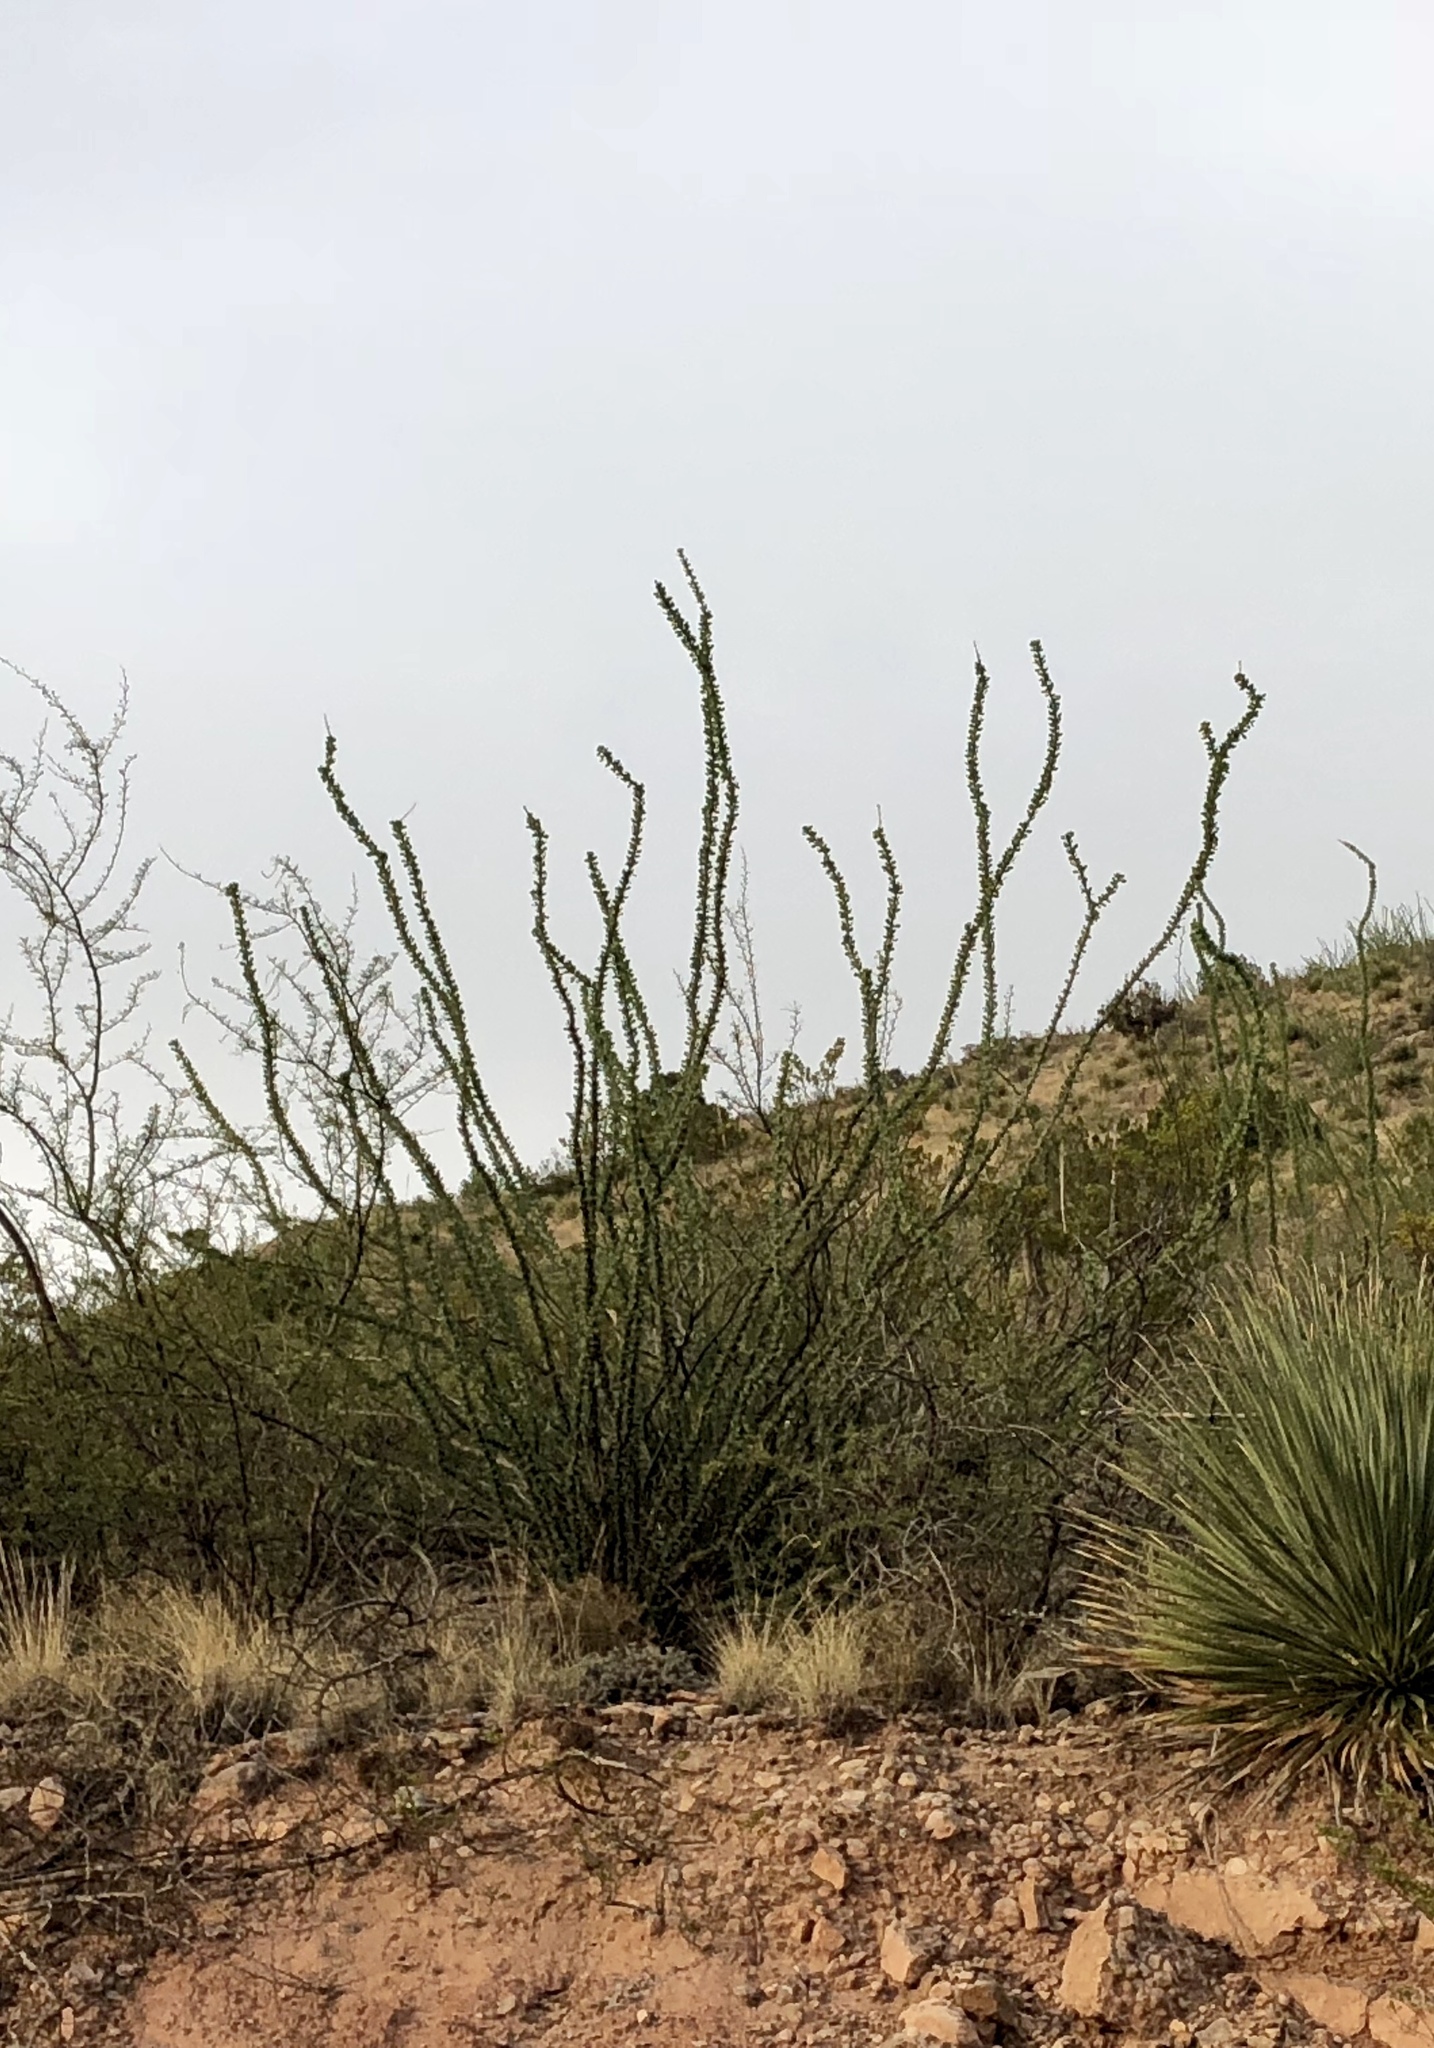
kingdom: Plantae
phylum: Tracheophyta
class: Magnoliopsida
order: Ericales
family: Fouquieriaceae
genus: Fouquieria
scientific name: Fouquieria splendens
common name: Vine-cactus
